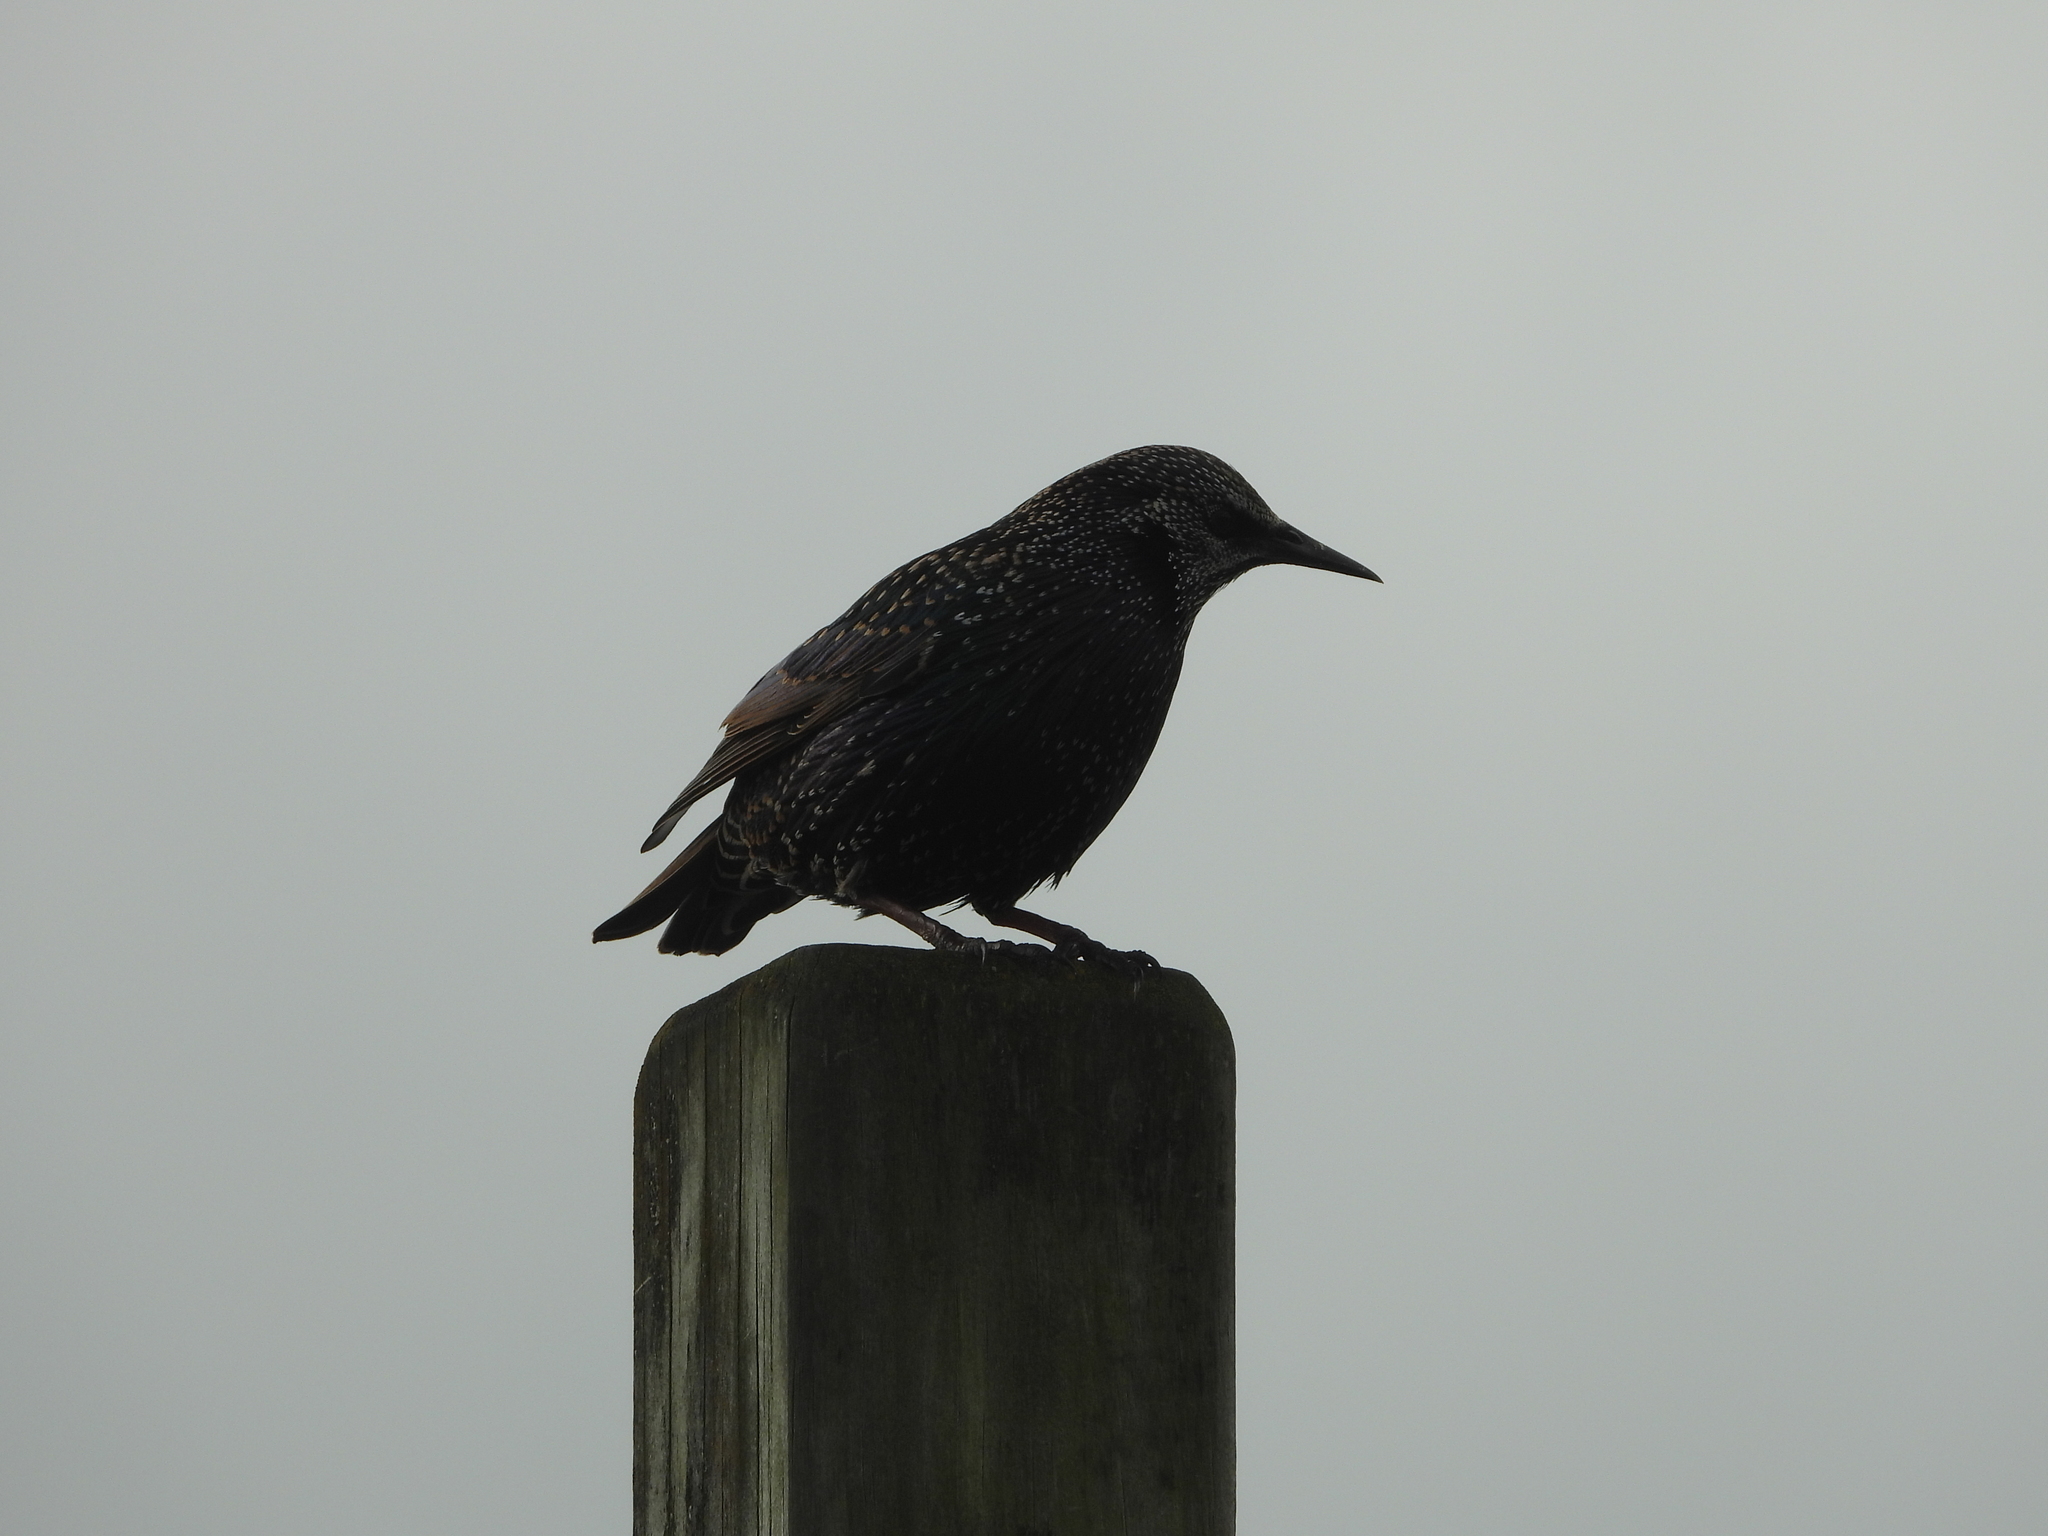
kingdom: Animalia
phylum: Chordata
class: Aves
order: Passeriformes
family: Sturnidae
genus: Sturnus
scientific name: Sturnus vulgaris
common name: Common starling
